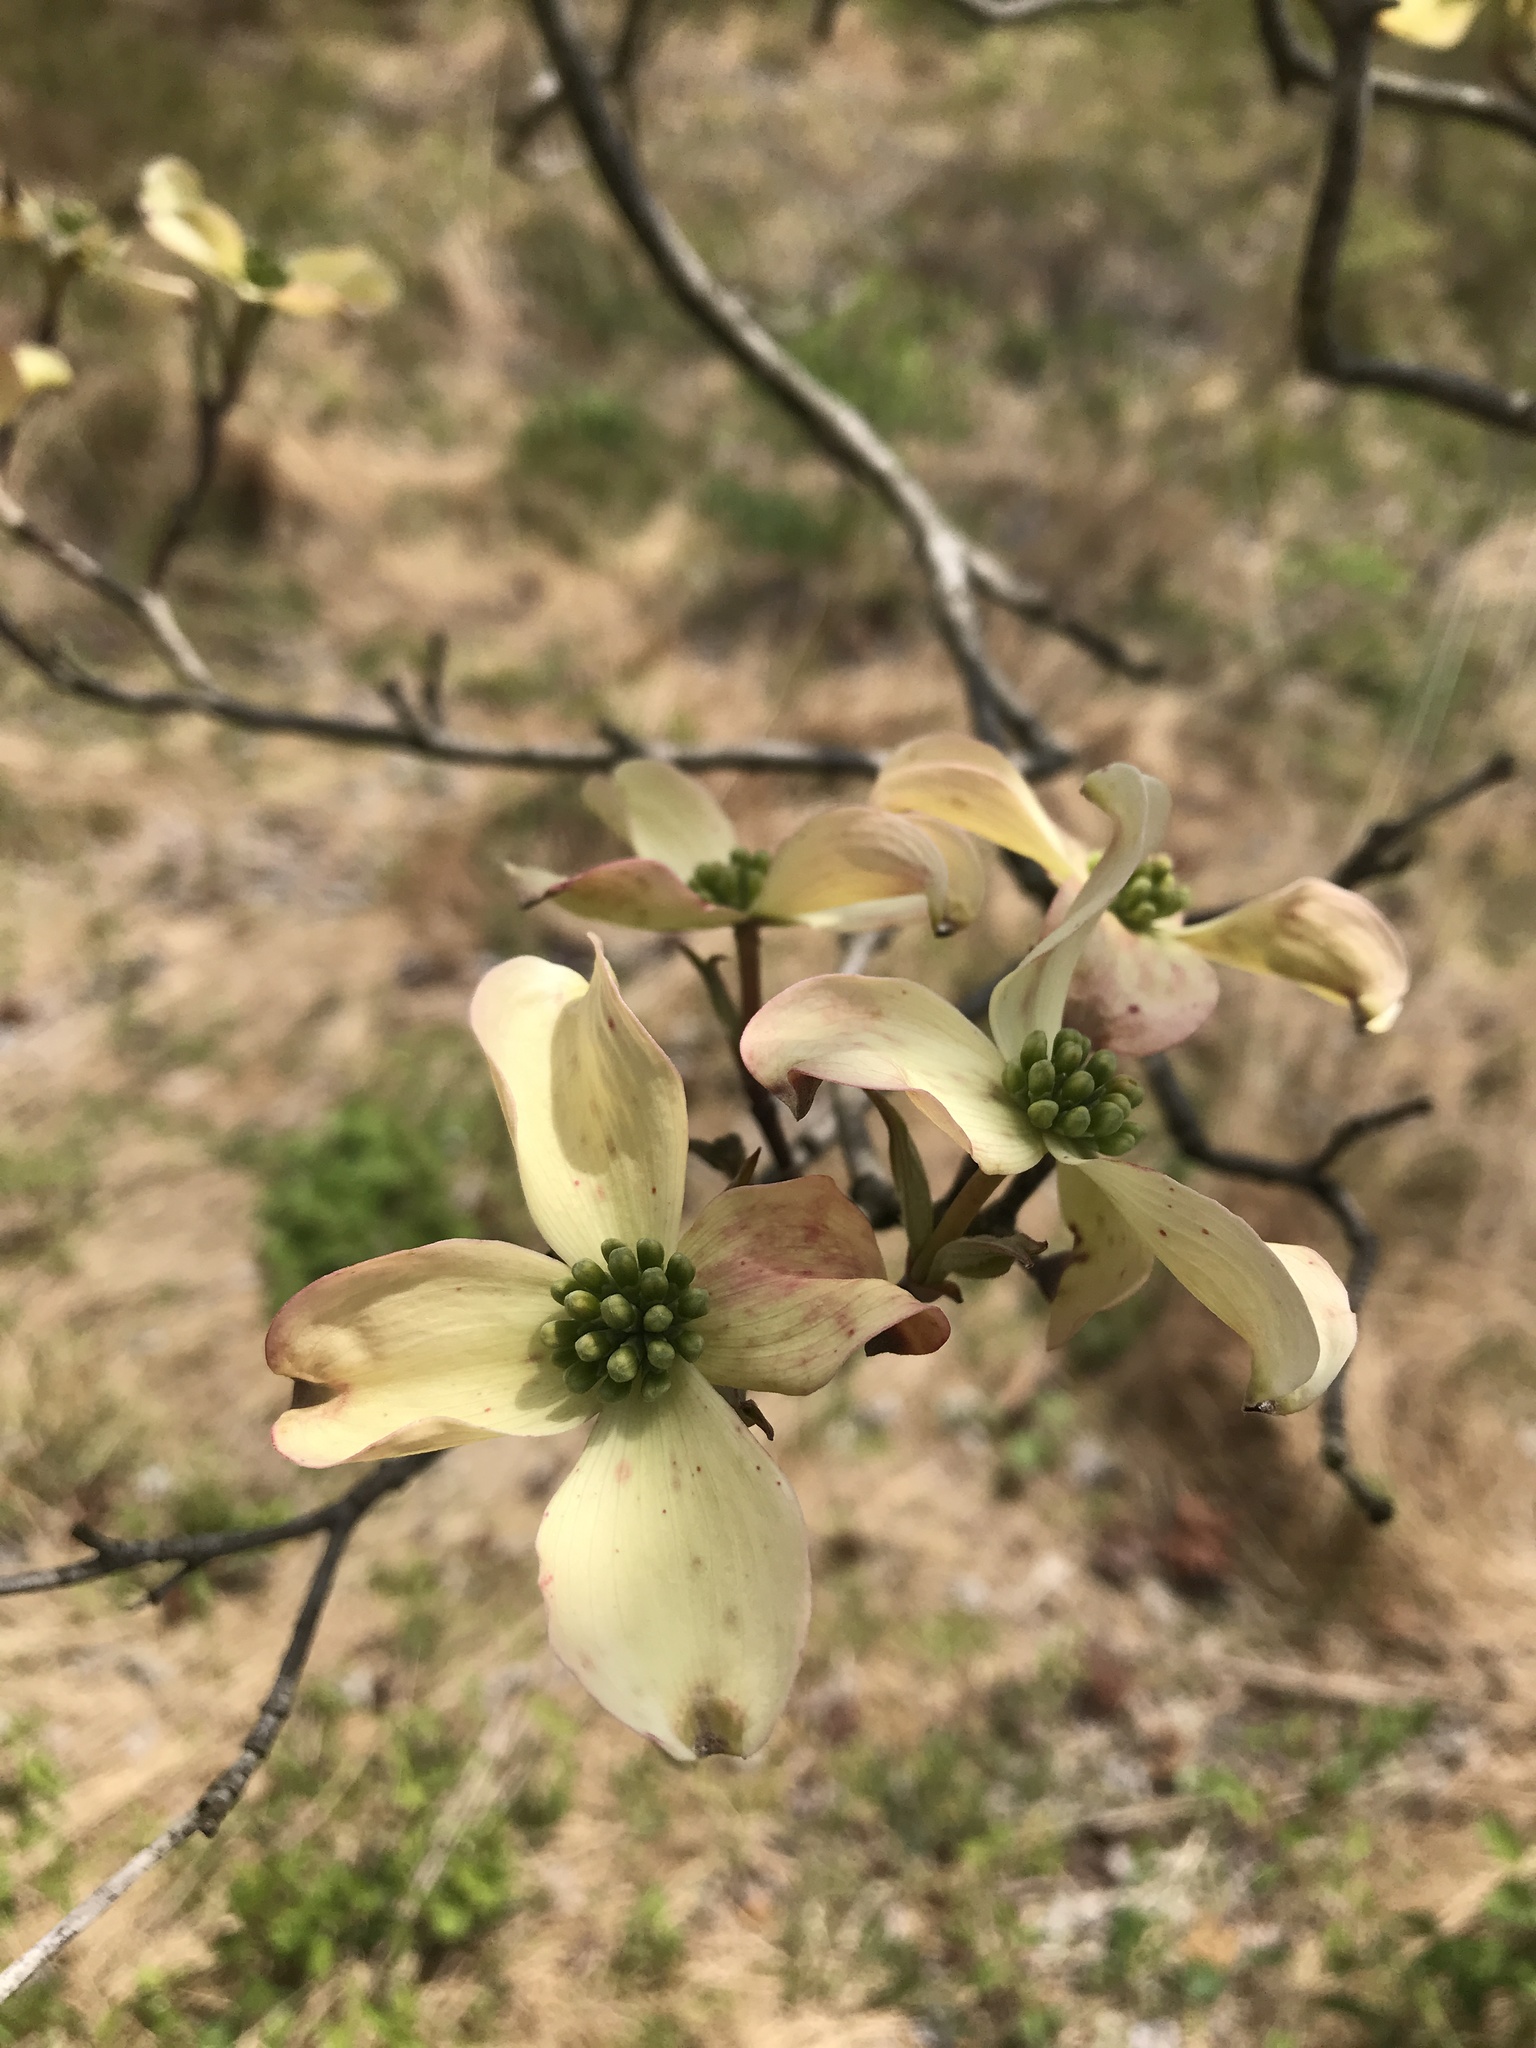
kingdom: Plantae
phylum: Tracheophyta
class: Magnoliopsida
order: Cornales
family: Cornaceae
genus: Cornus
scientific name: Cornus florida
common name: Flowering dogwood
